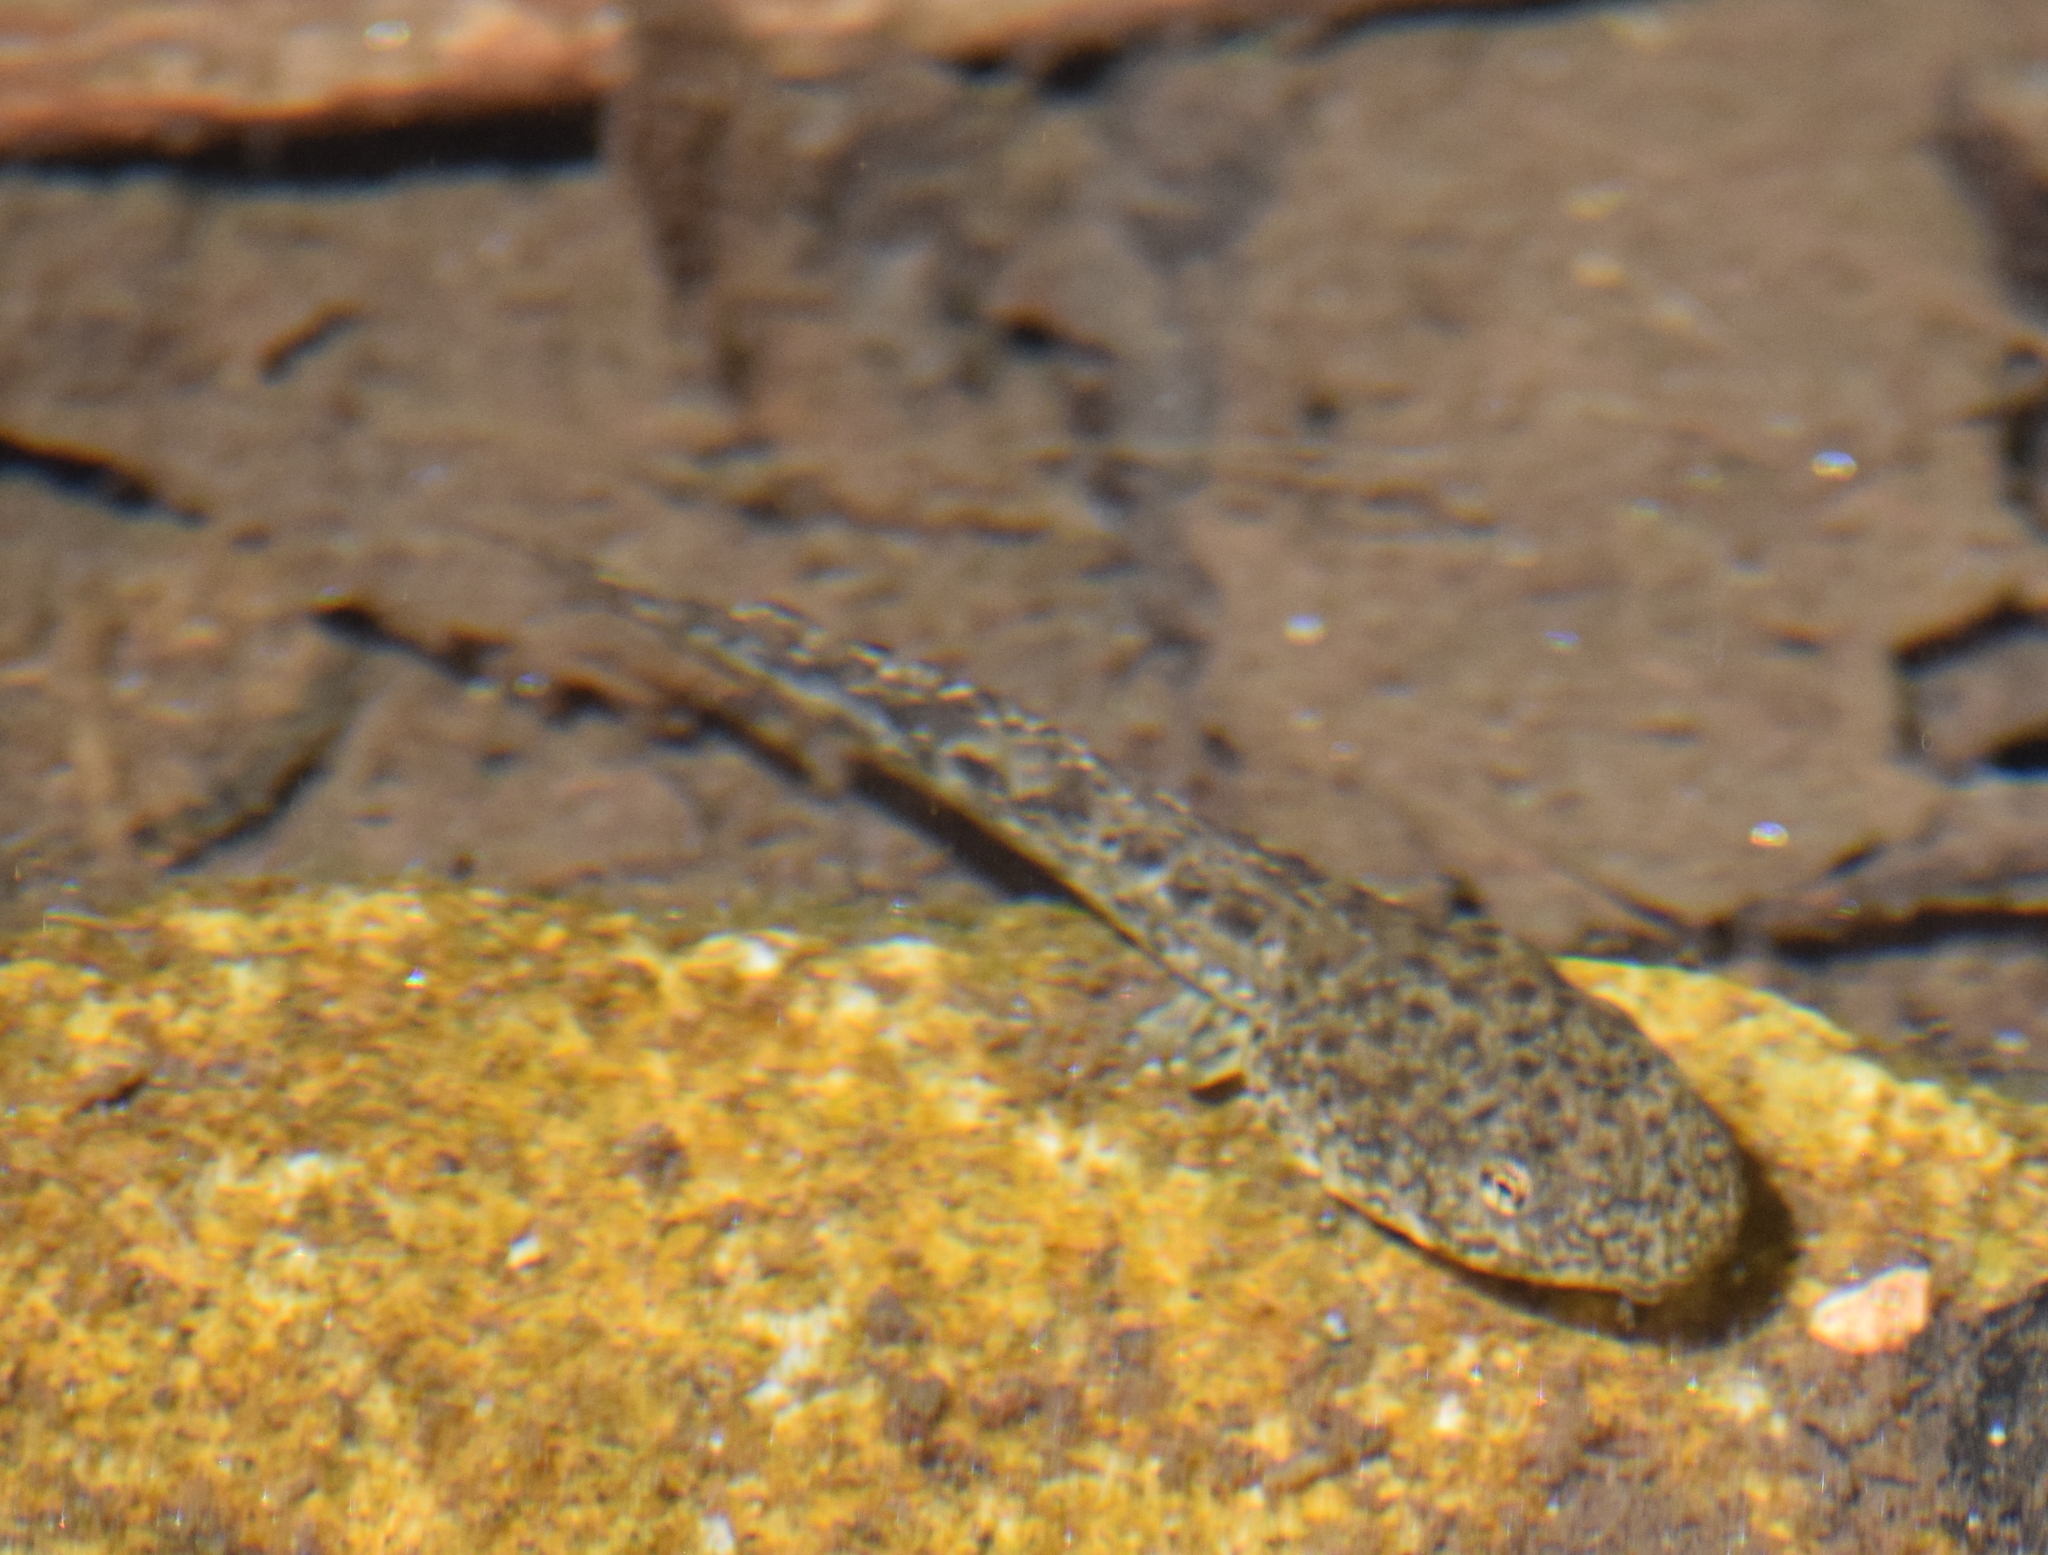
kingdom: Animalia
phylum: Chordata
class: Amphibia
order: Anura
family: Hylidae
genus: Pseudacris
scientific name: Pseudacris cadaverina
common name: California chorus frog
